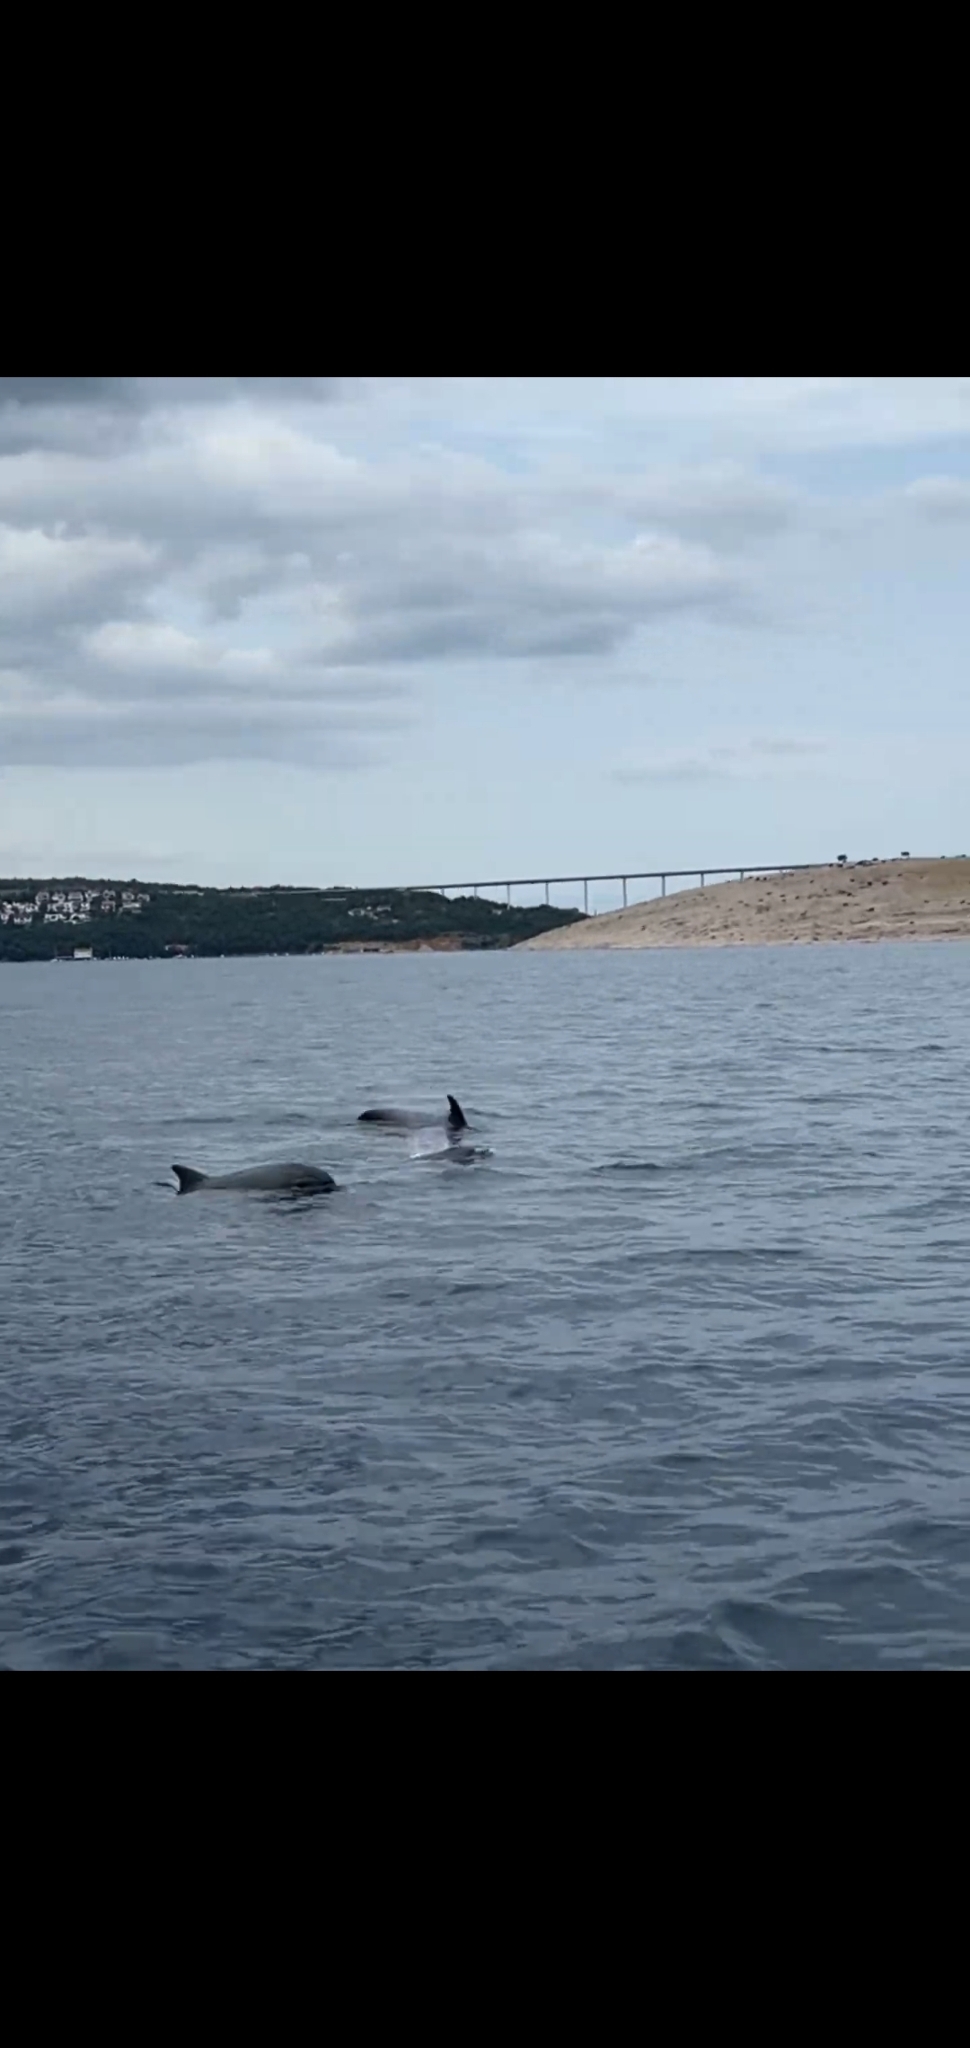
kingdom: Animalia
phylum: Chordata
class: Mammalia
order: Cetacea
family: Delphinidae
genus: Tursiops
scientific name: Tursiops truncatus
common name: Bottlenose dolphin
